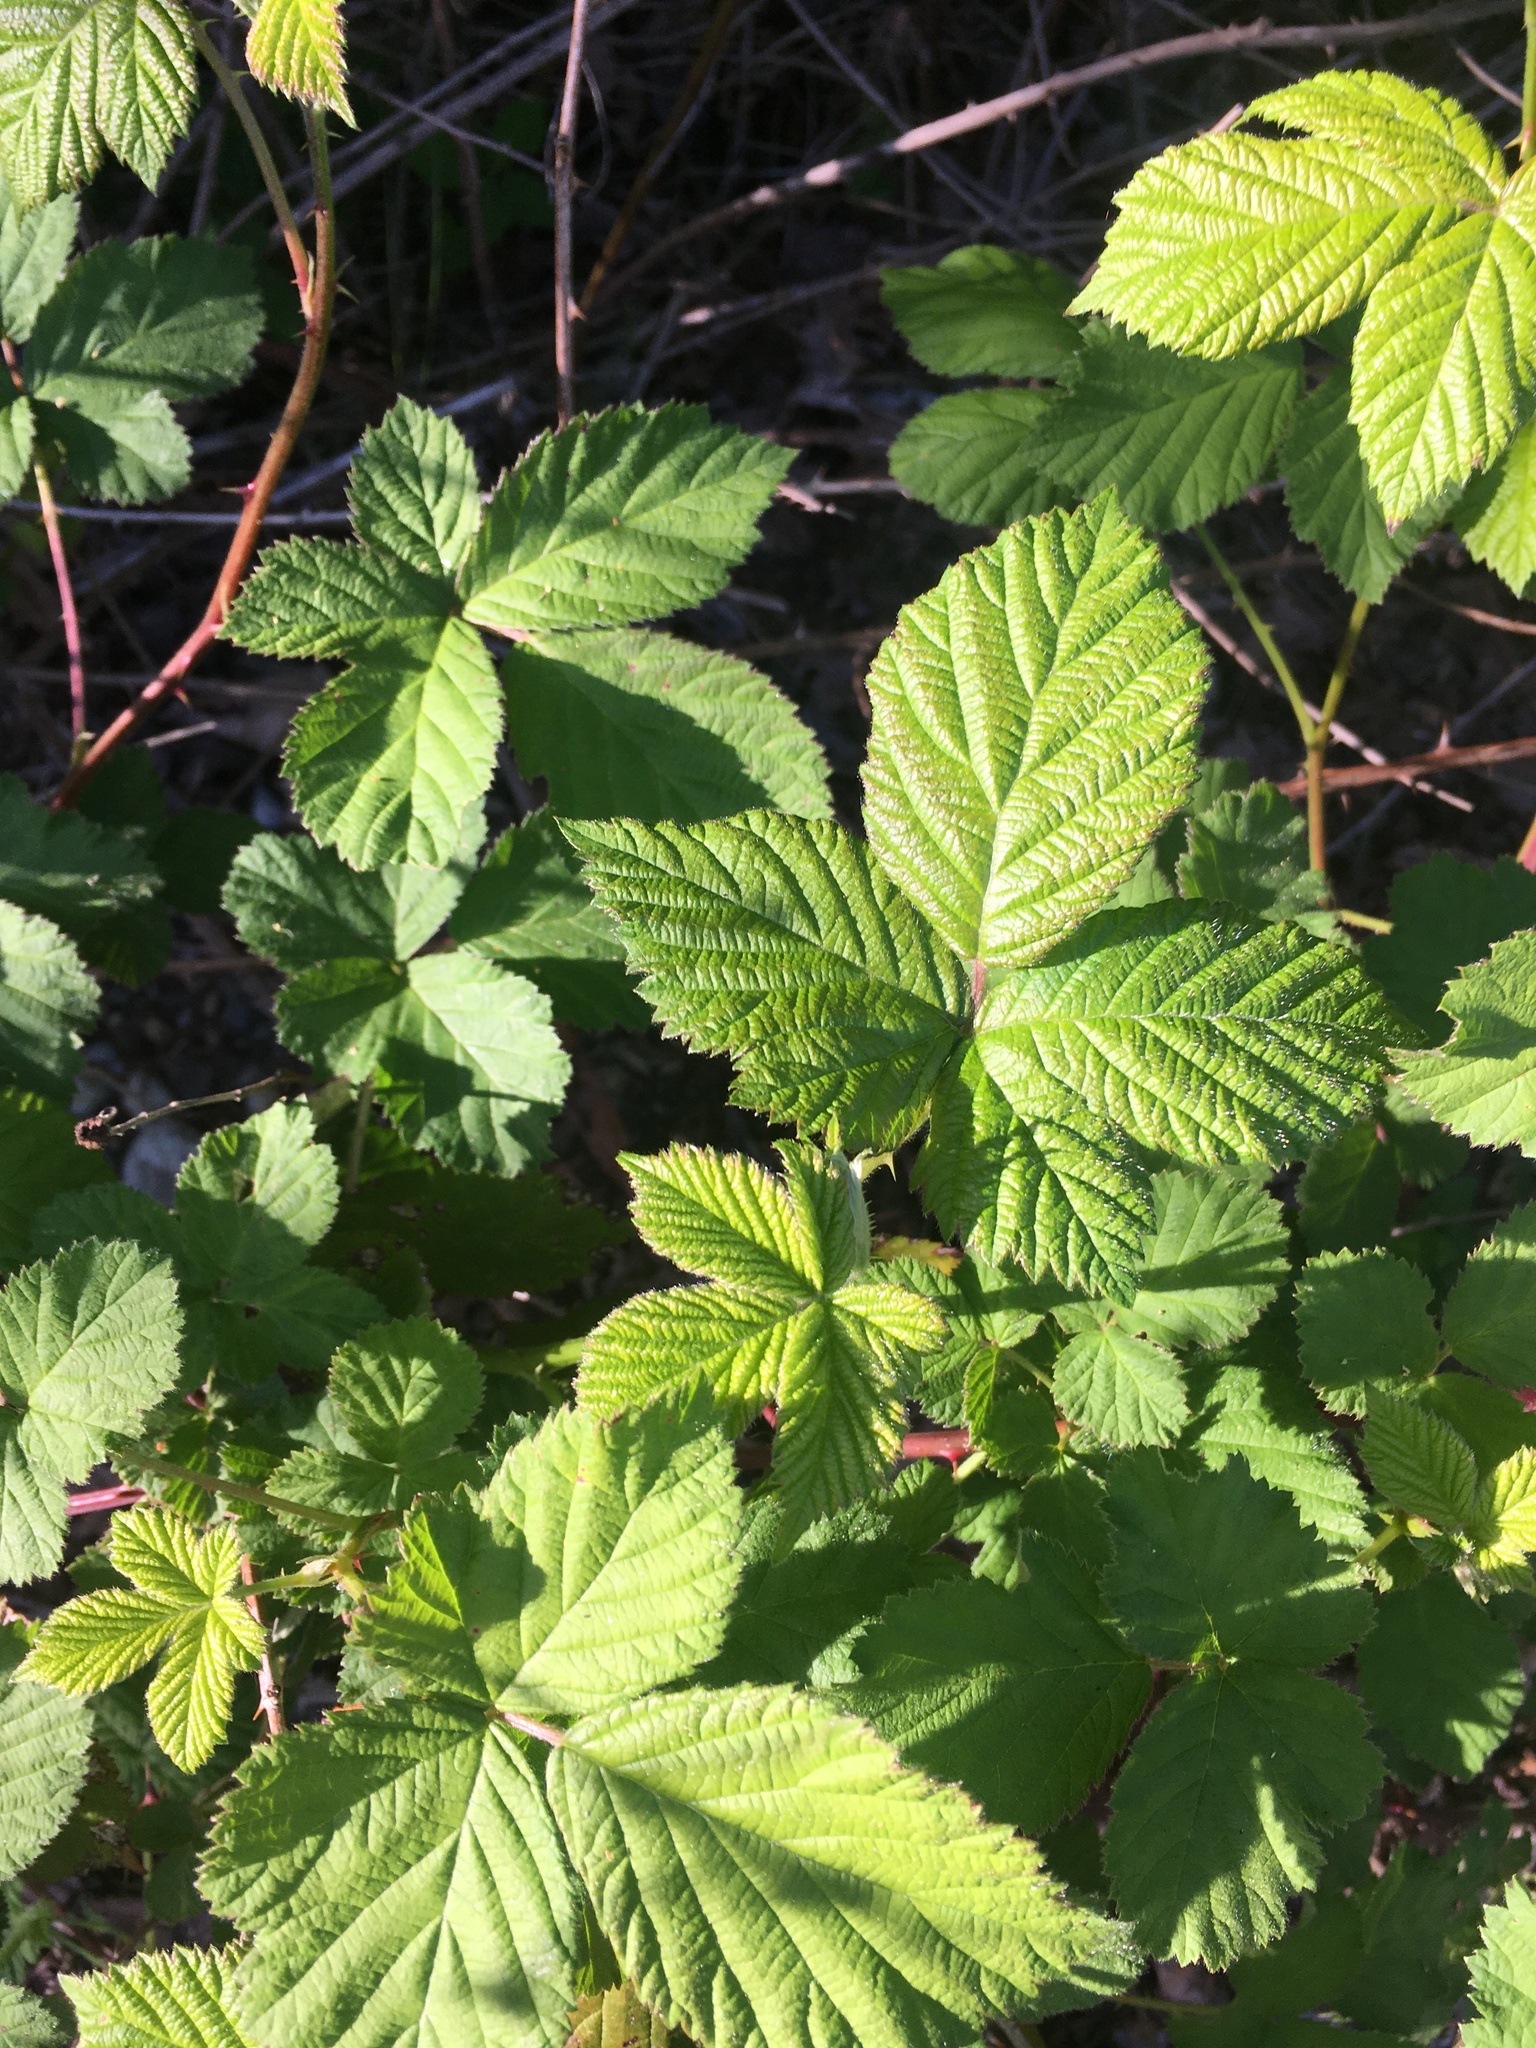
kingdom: Plantae
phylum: Tracheophyta
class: Magnoliopsida
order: Rosales
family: Rosaceae
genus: Rubus
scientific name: Rubus bifrons
